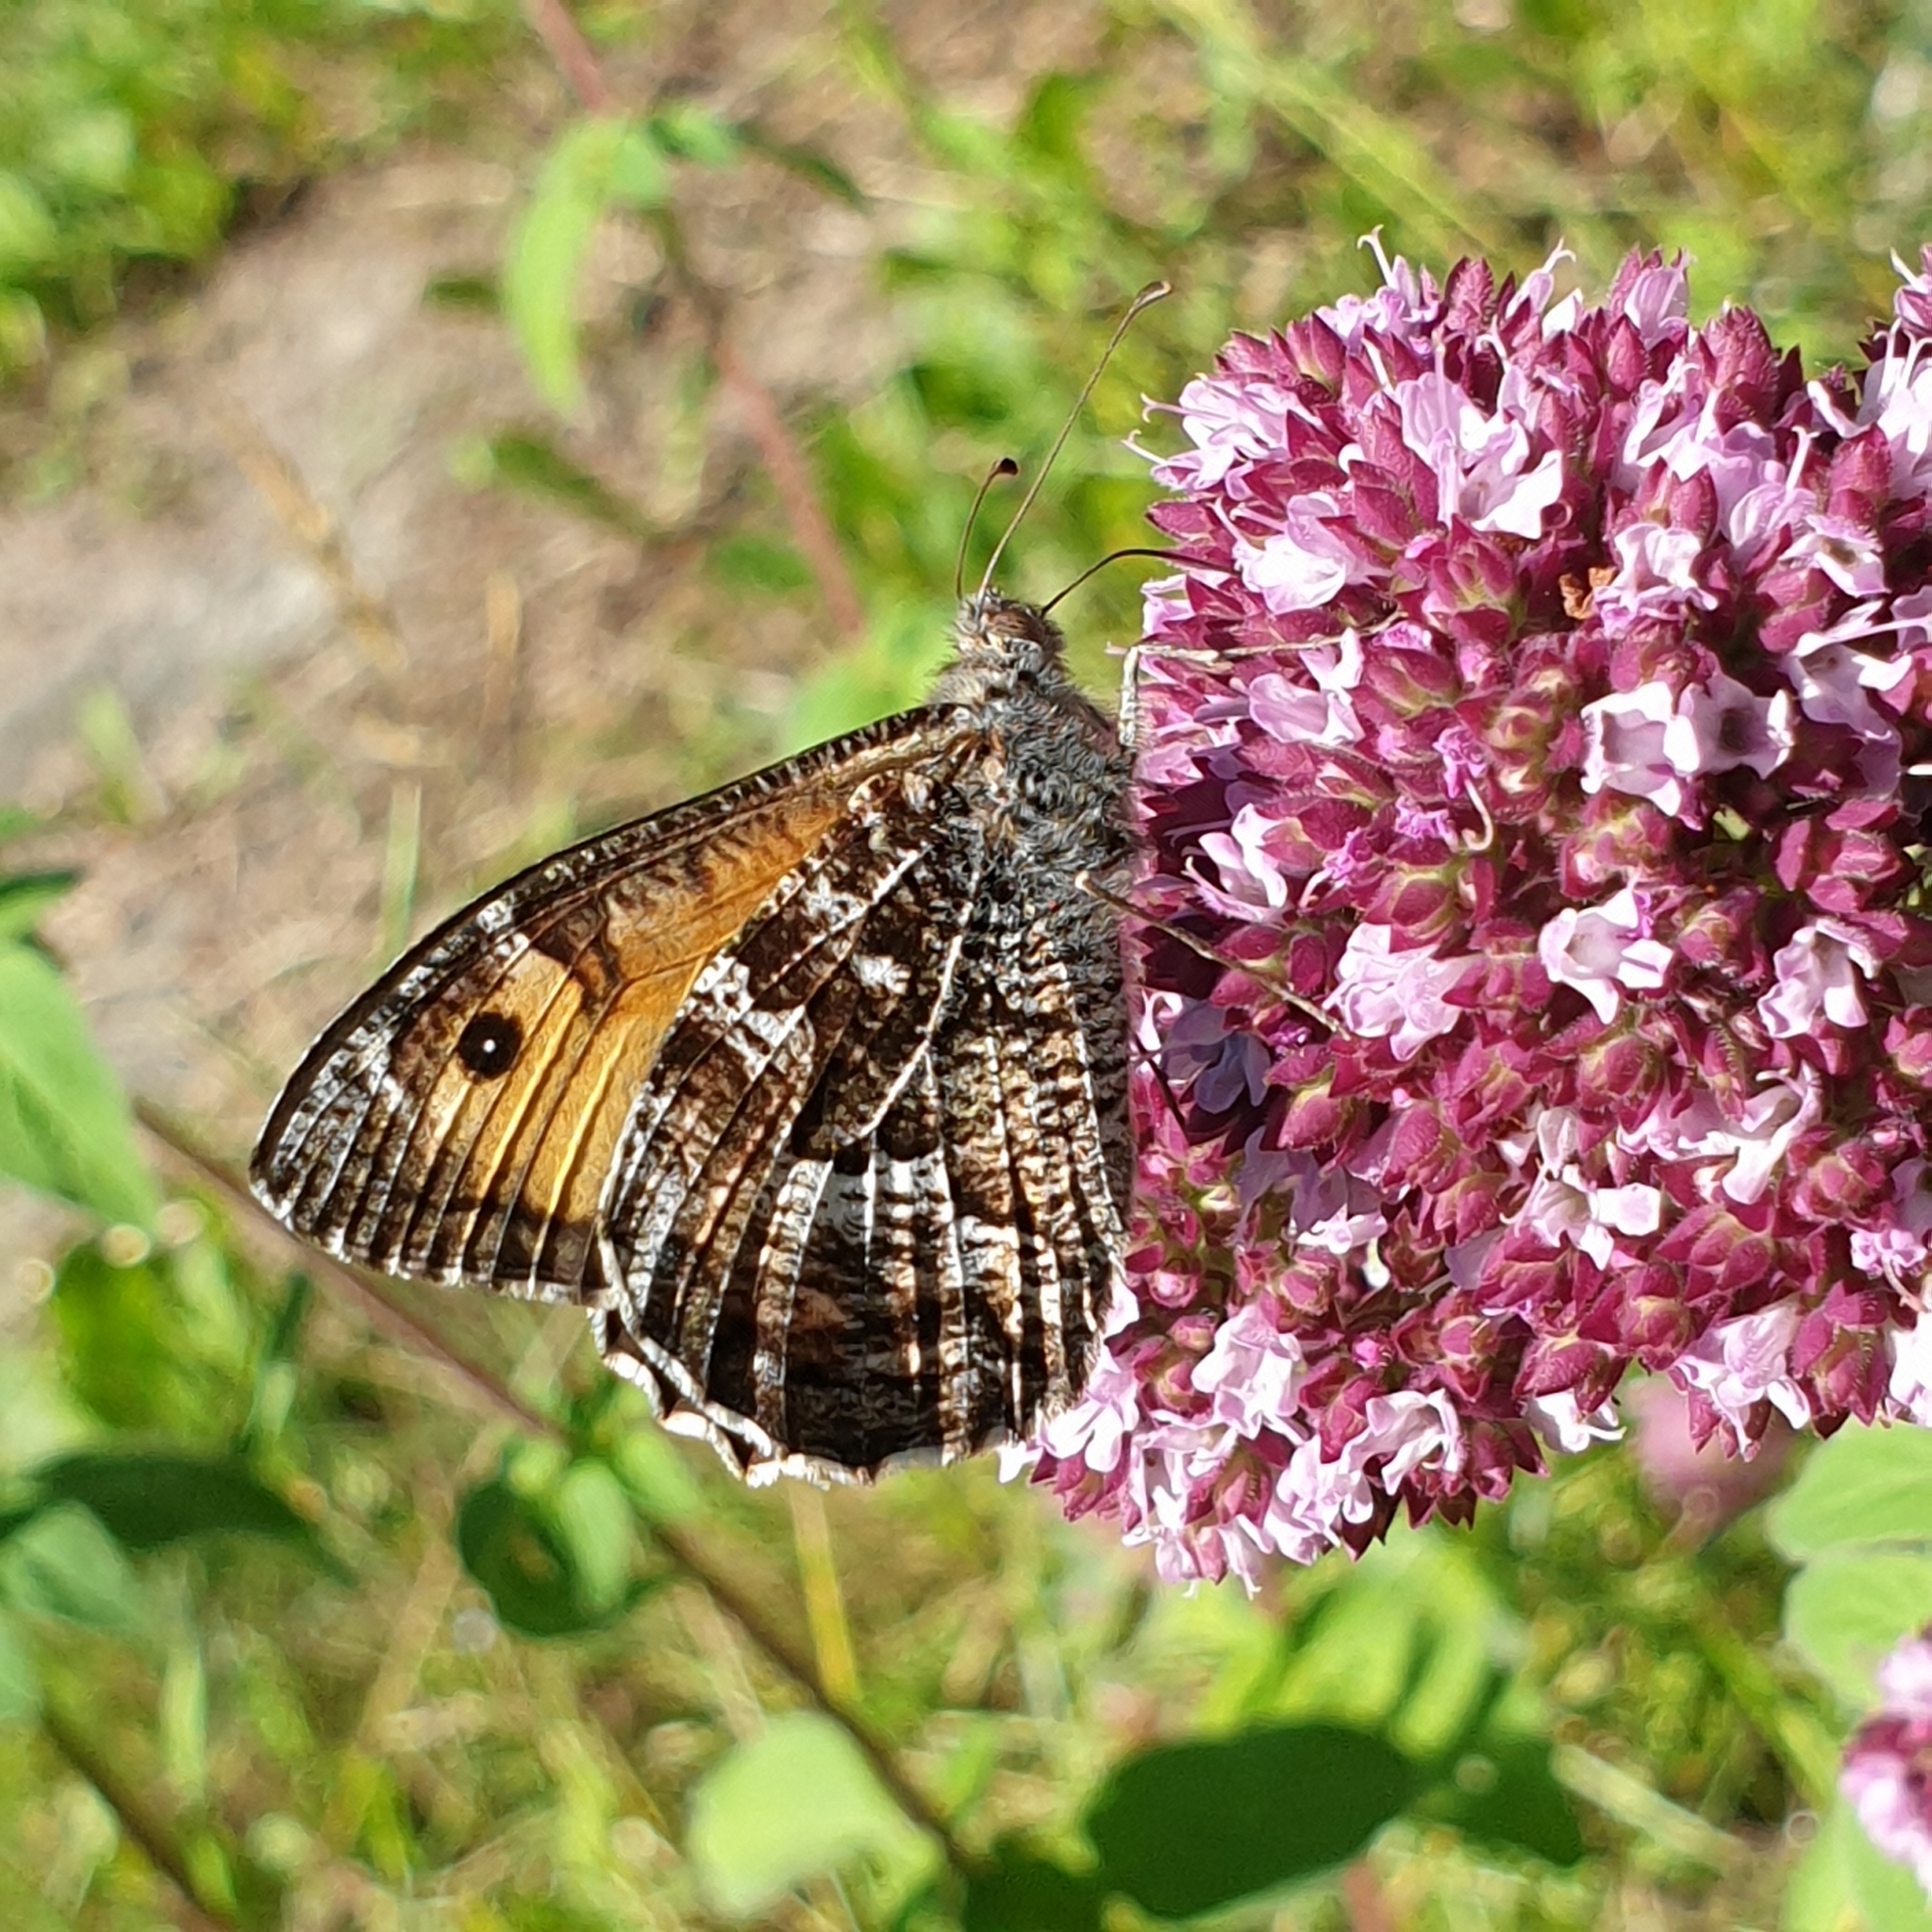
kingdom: Animalia
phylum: Arthropoda
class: Insecta
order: Lepidoptera
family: Nymphalidae
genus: Hipparchia
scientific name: Hipparchia semele
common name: Grayling
